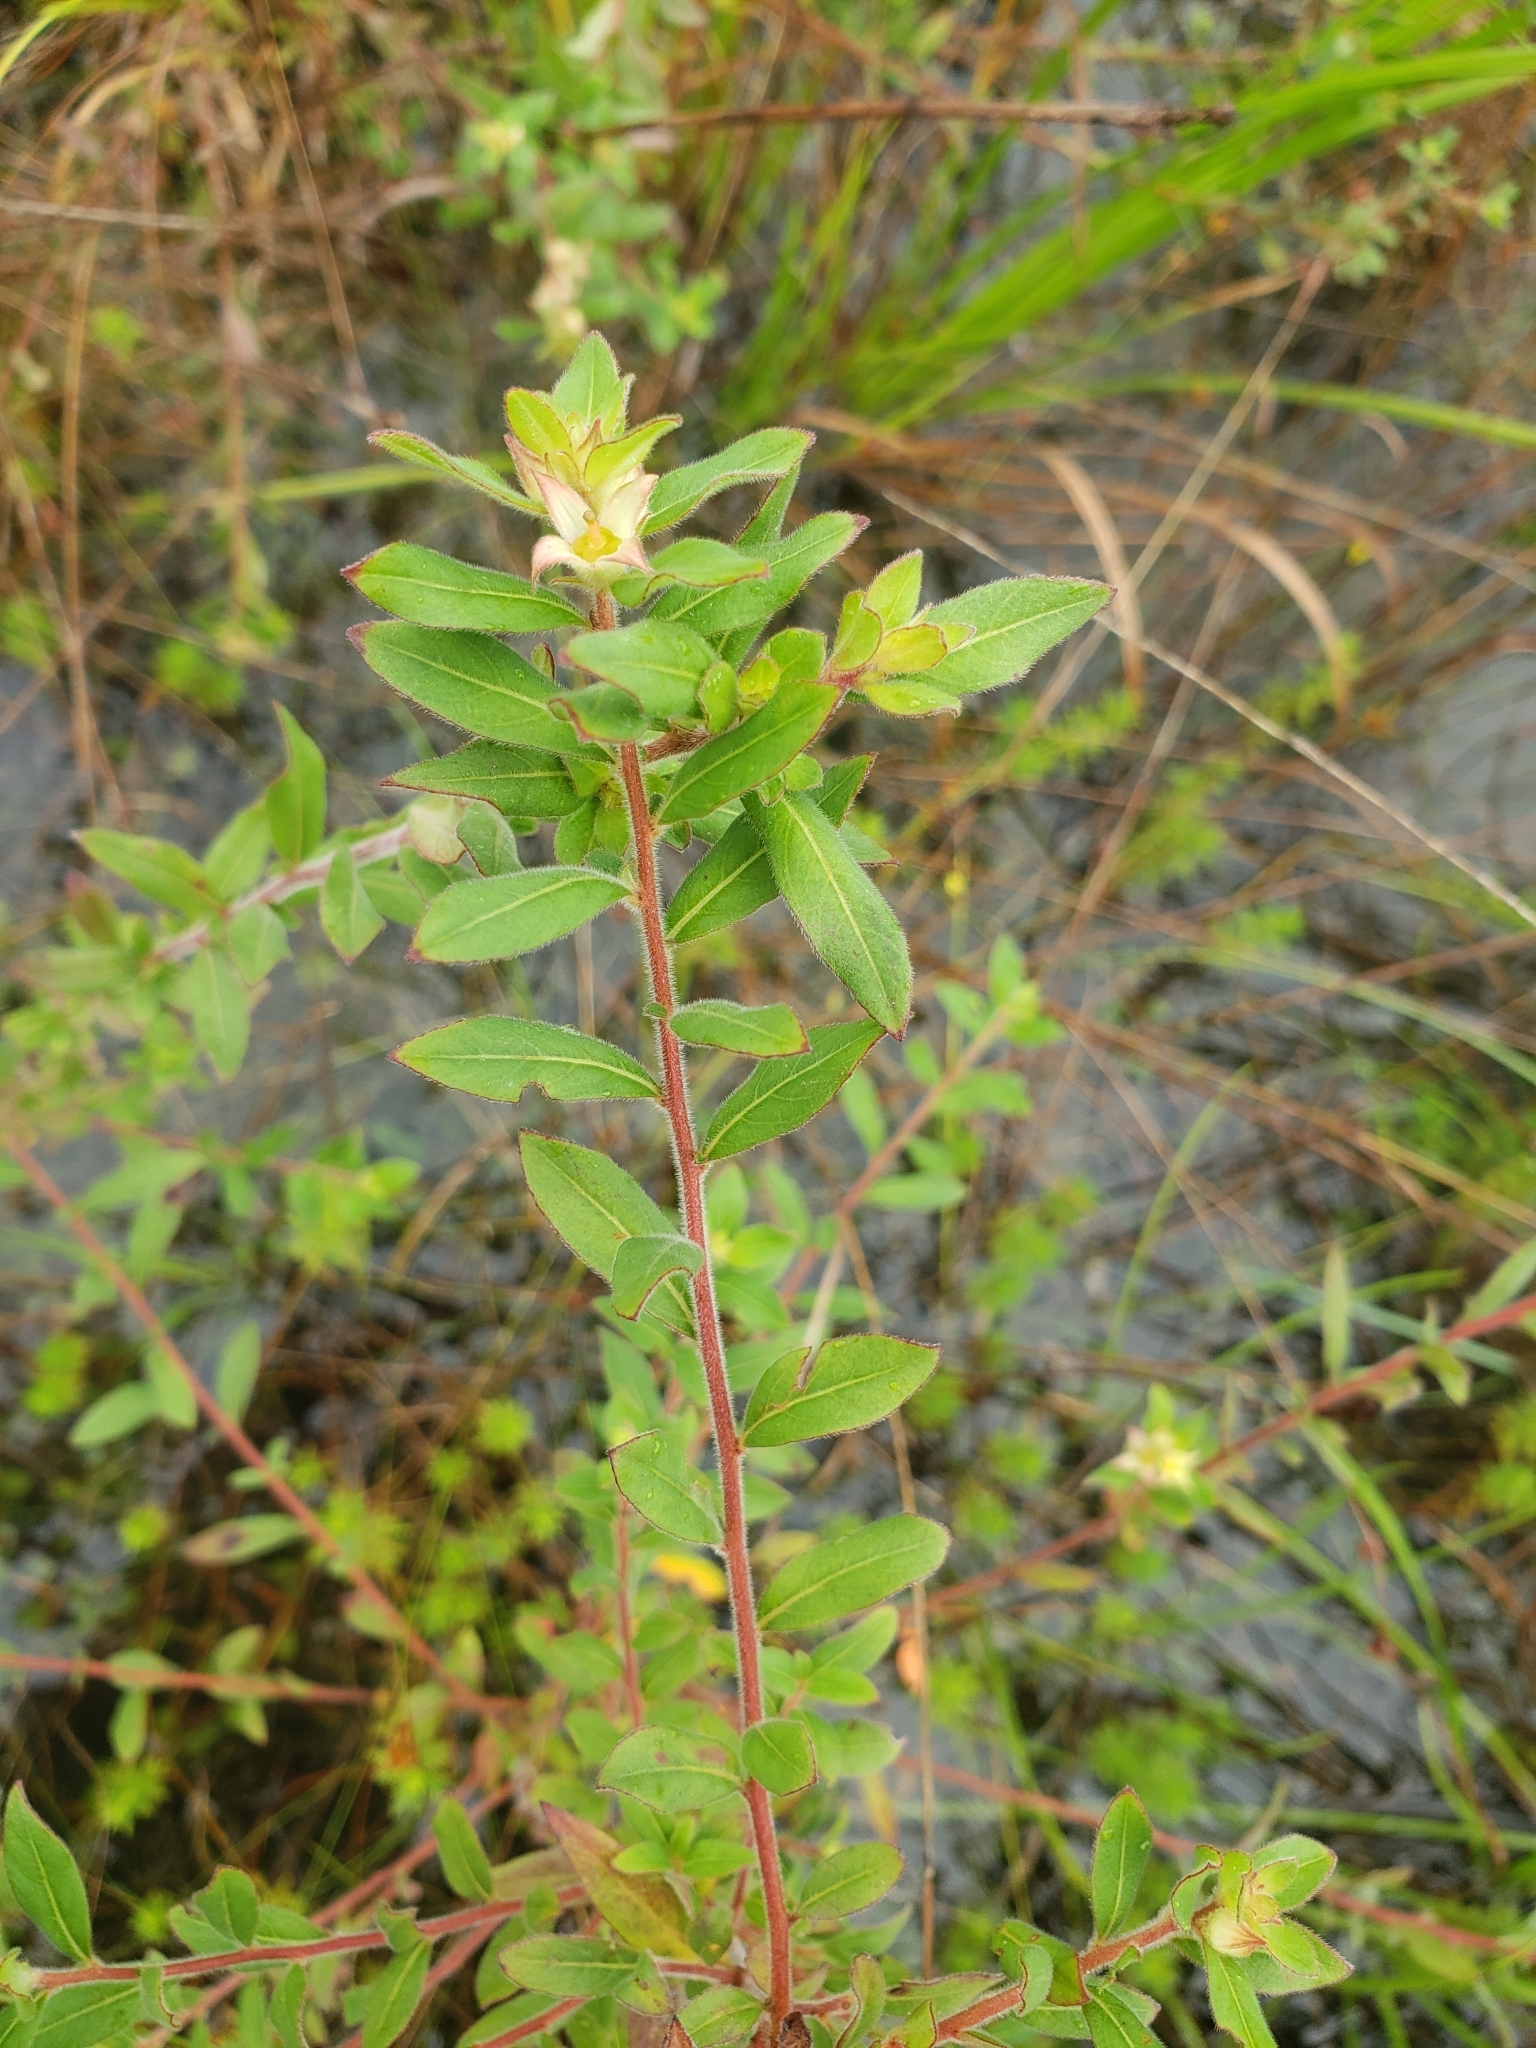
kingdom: Plantae
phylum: Tracheophyta
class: Magnoliopsida
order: Myrtales
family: Onagraceae
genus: Ludwigia
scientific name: Ludwigia pilosa
